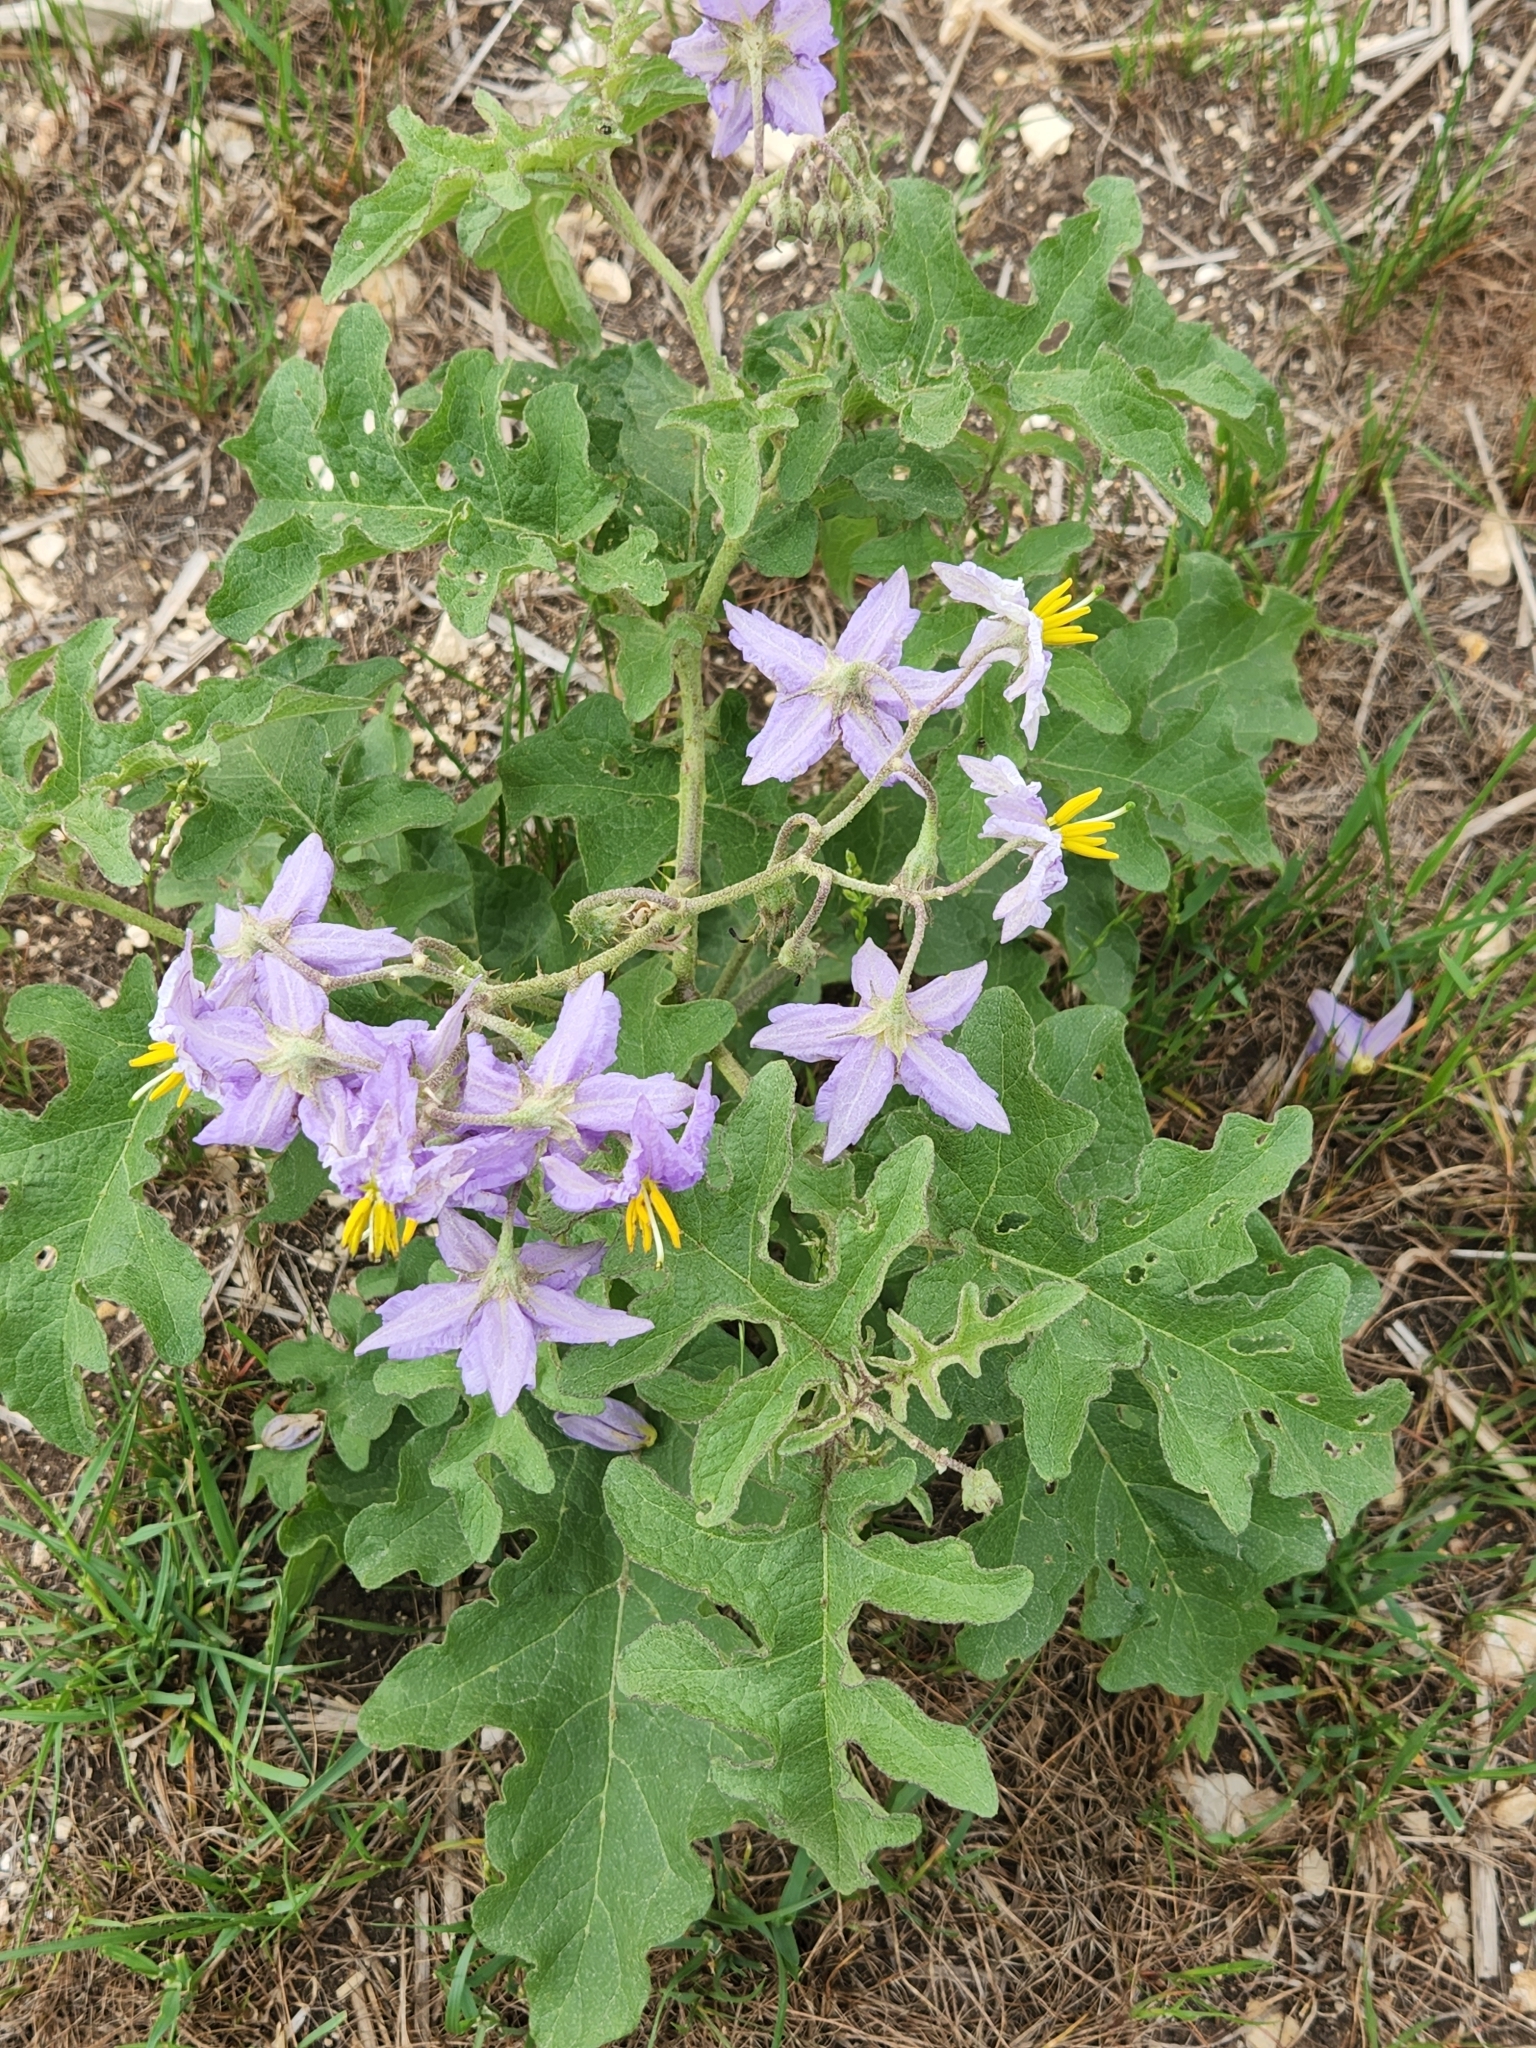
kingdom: Plantae
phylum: Tracheophyta
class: Magnoliopsida
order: Solanales
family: Solanaceae
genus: Solanum
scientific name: Solanum dimidiatum
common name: Carolina horse-nettle
